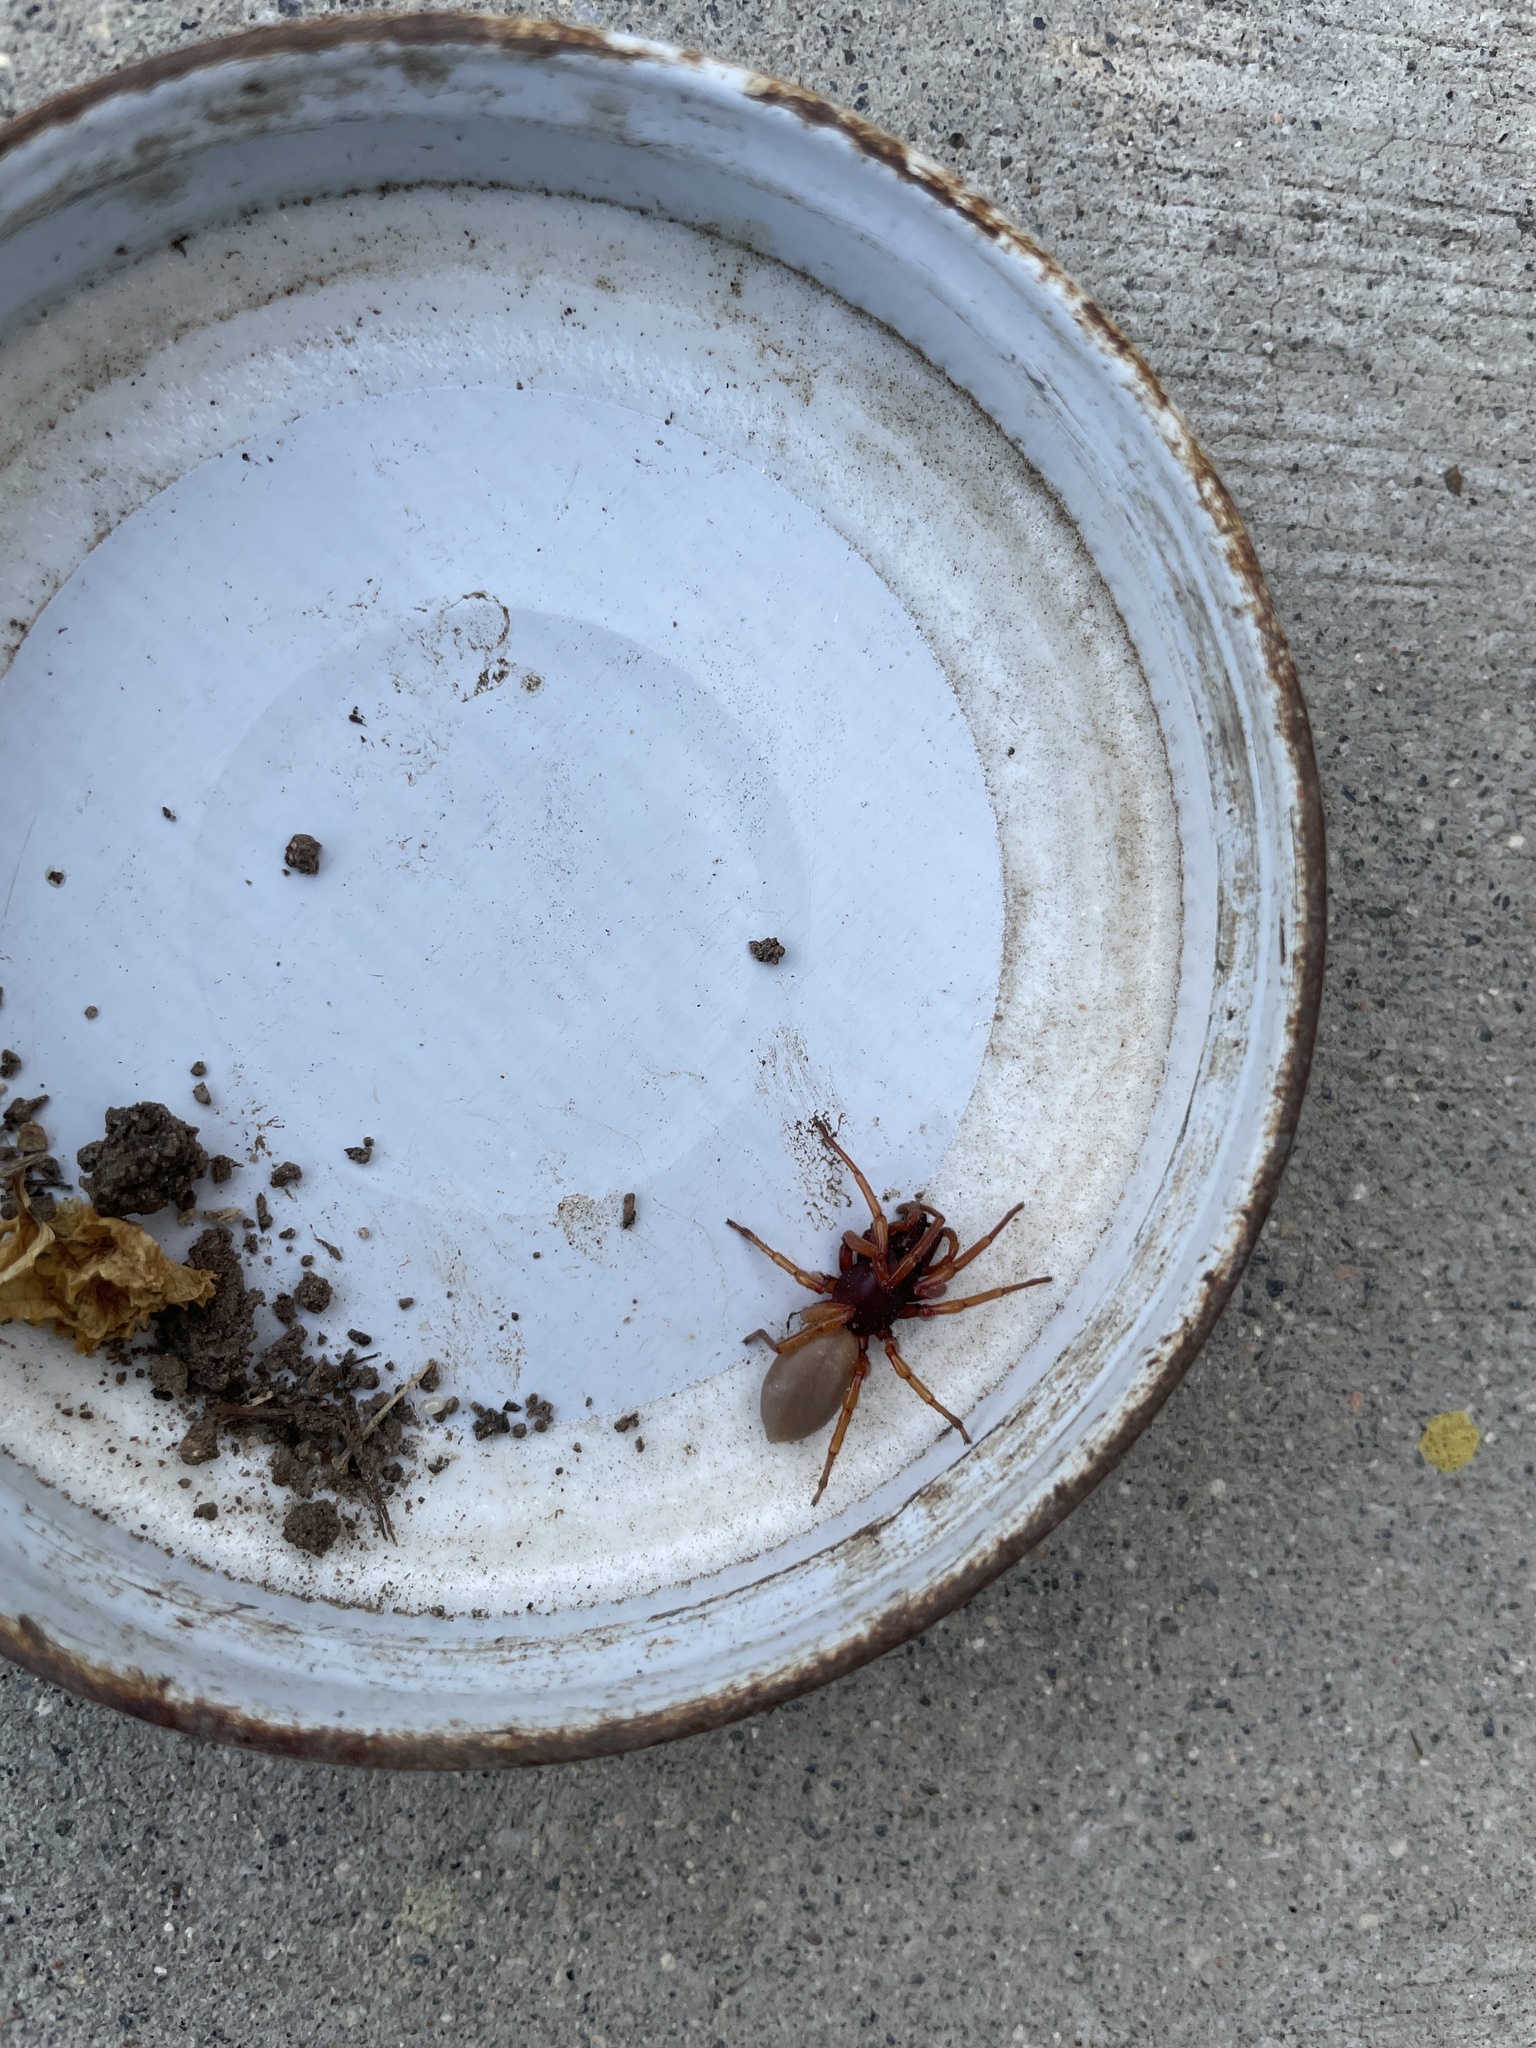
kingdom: Animalia
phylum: Arthropoda
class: Arachnida
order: Araneae
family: Dysderidae
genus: Dysdera
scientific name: Dysdera crocata
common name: Woodlouse spider
